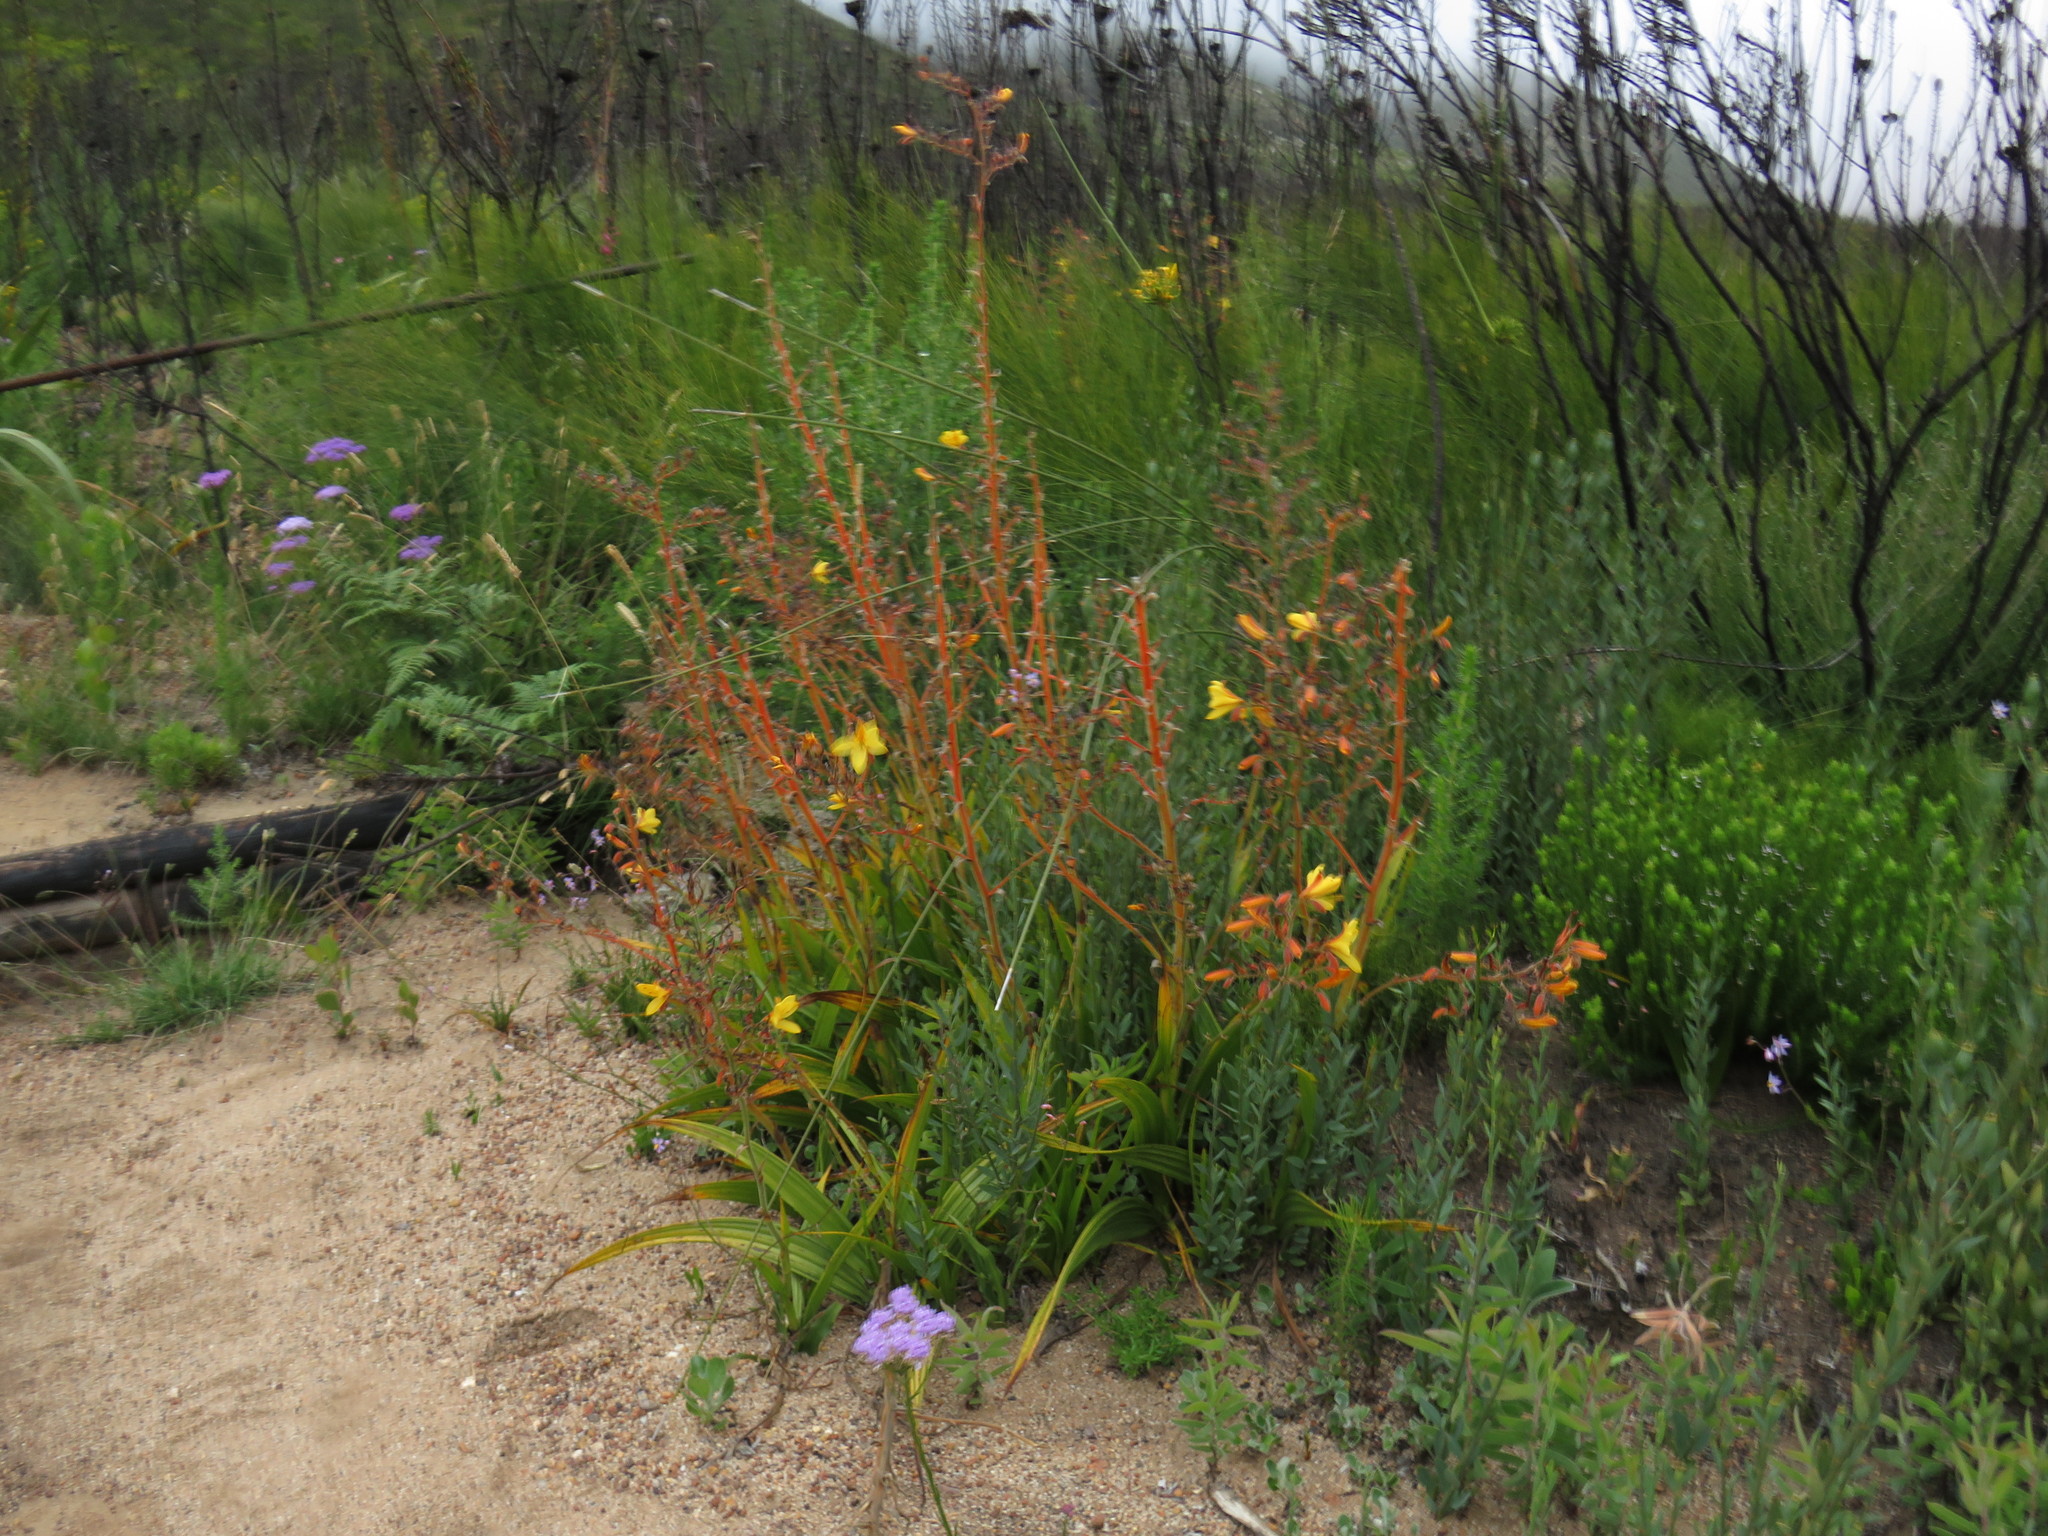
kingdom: Plantae
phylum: Tracheophyta
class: Liliopsida
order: Commelinales
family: Haemodoraceae
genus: Wachendorfia
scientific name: Wachendorfia paniculata
